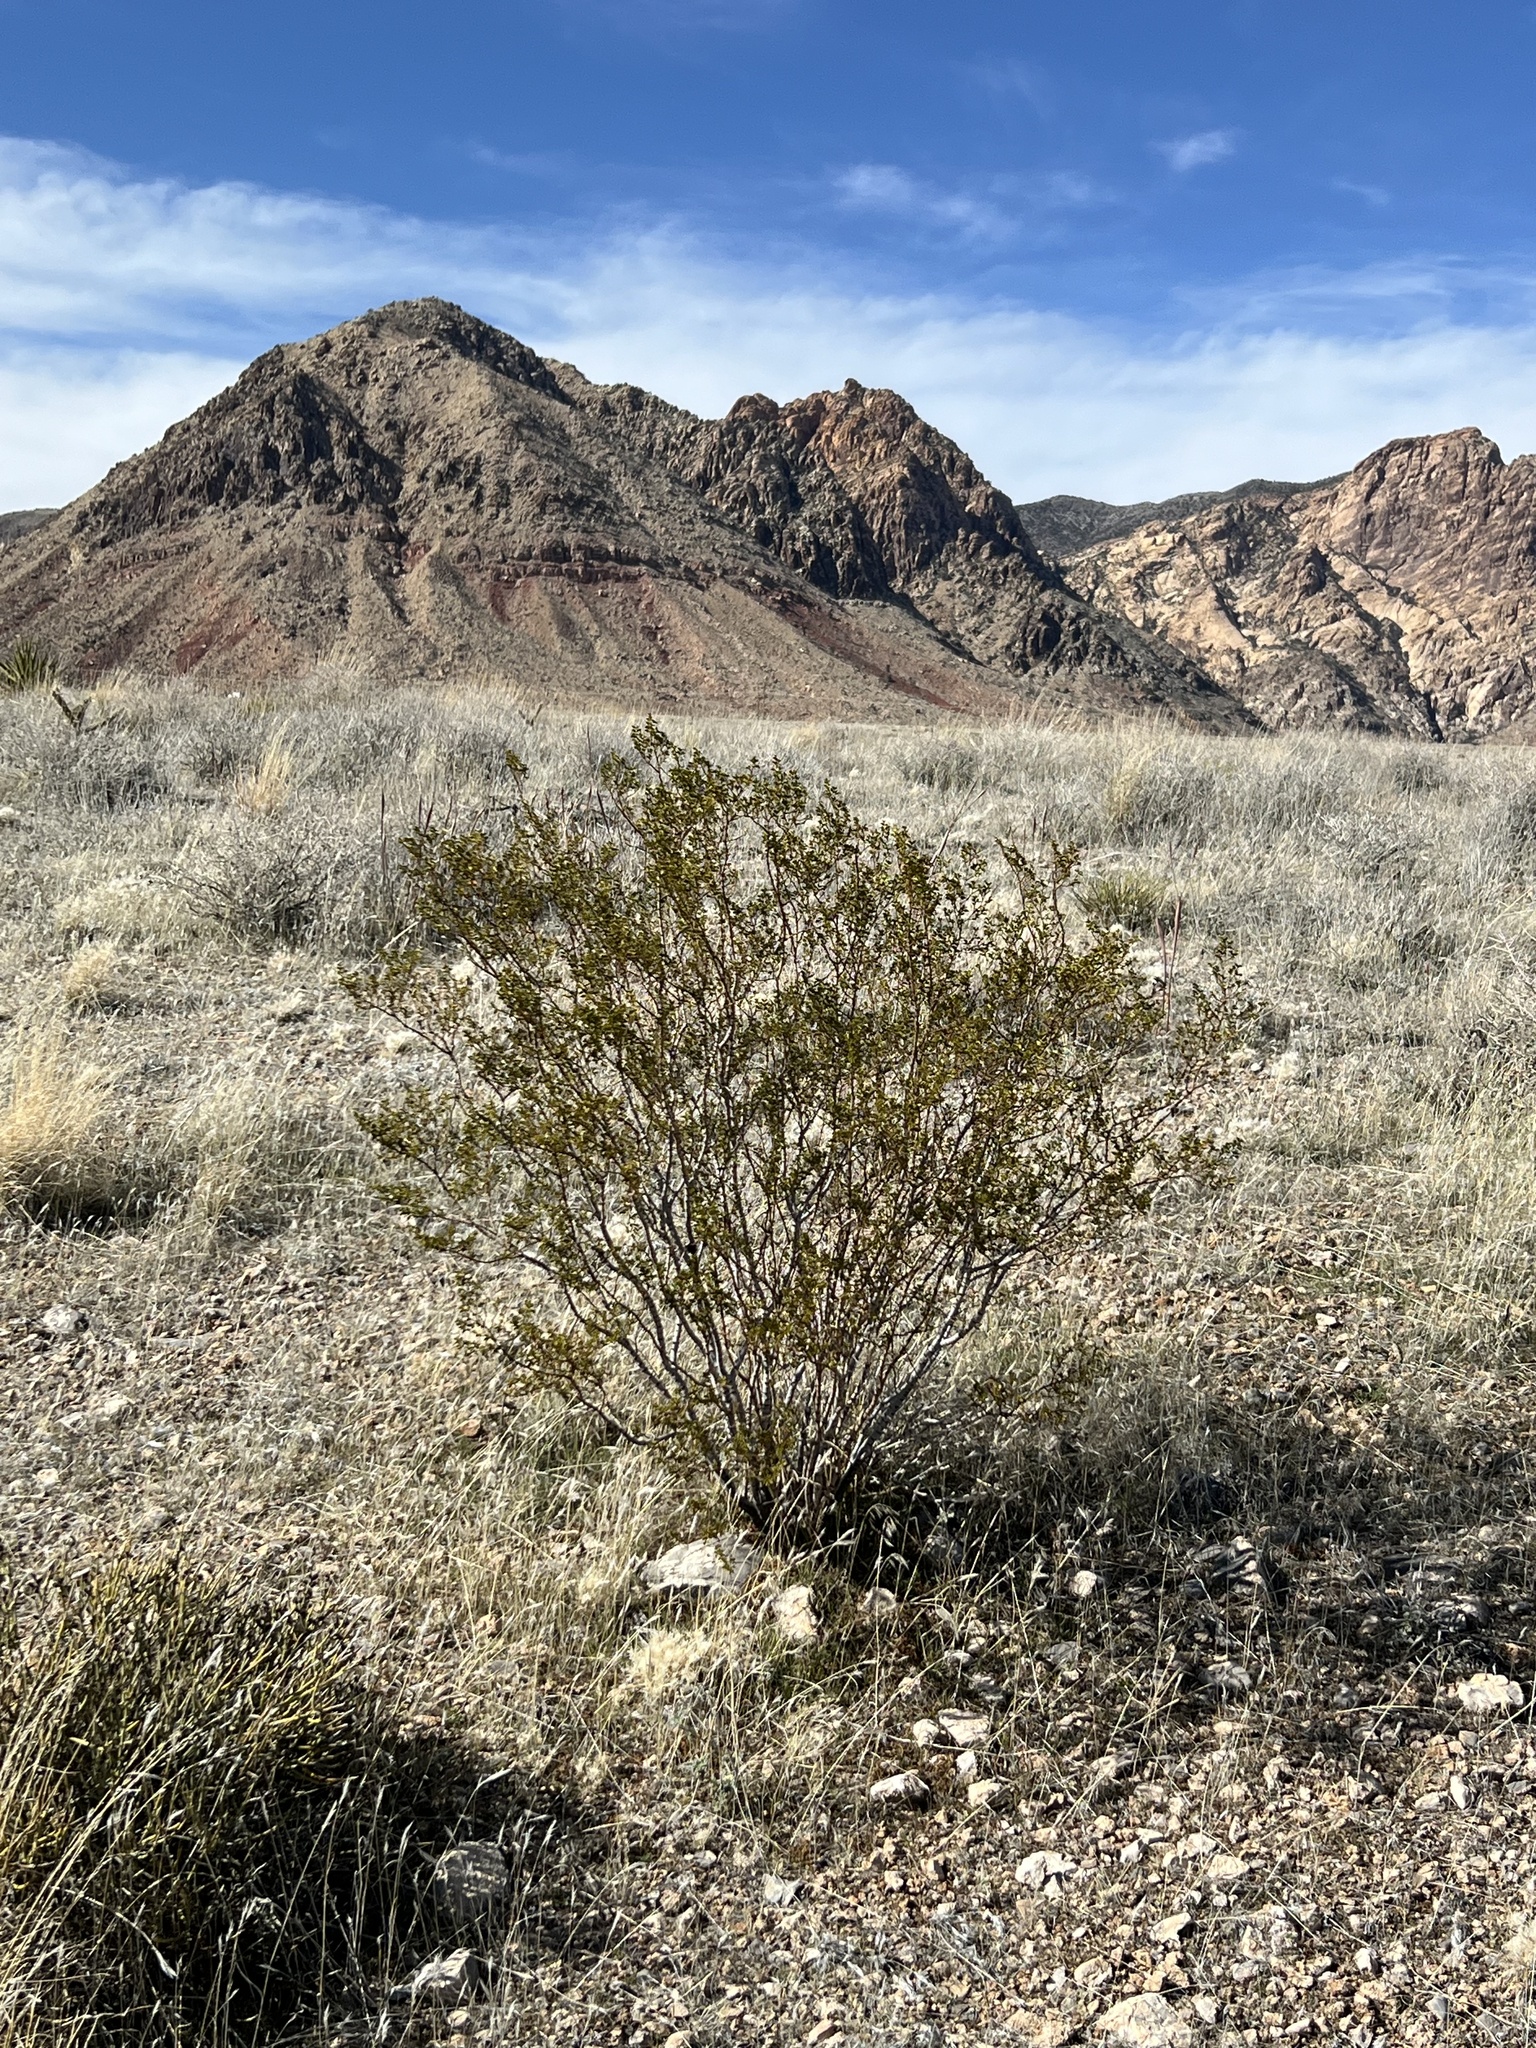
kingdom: Plantae
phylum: Tracheophyta
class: Magnoliopsida
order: Zygophyllales
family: Zygophyllaceae
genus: Larrea
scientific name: Larrea tridentata
